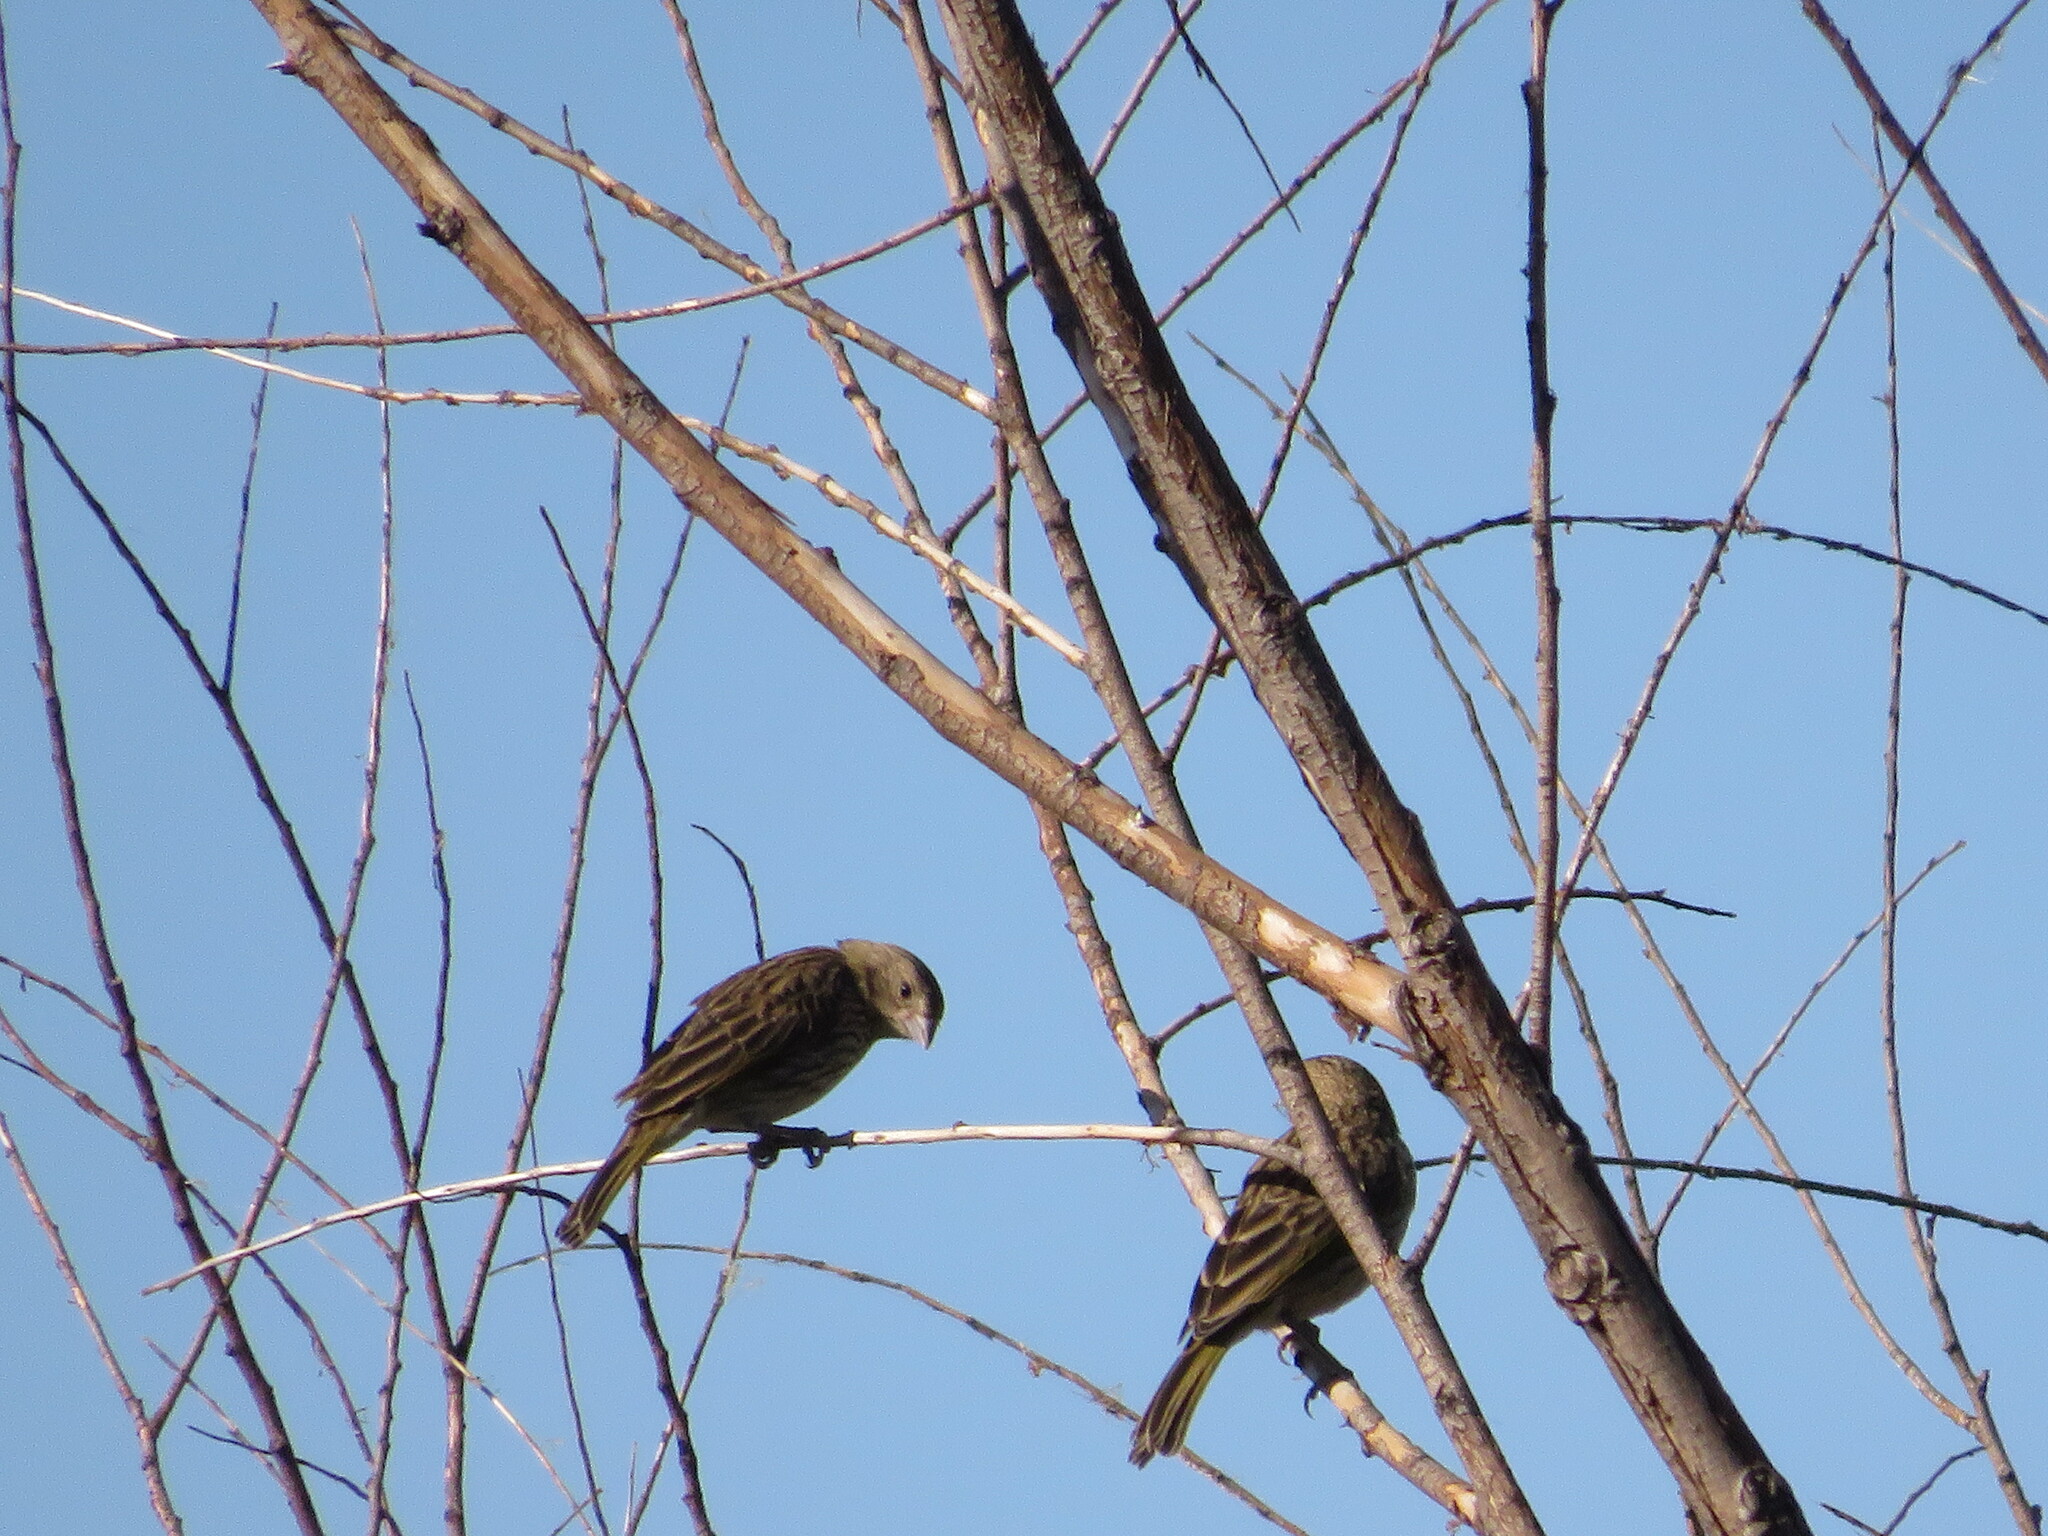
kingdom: Animalia
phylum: Chordata
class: Aves
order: Passeriformes
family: Thraupidae
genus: Sicalis
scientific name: Sicalis flaveola
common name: Saffron finch
